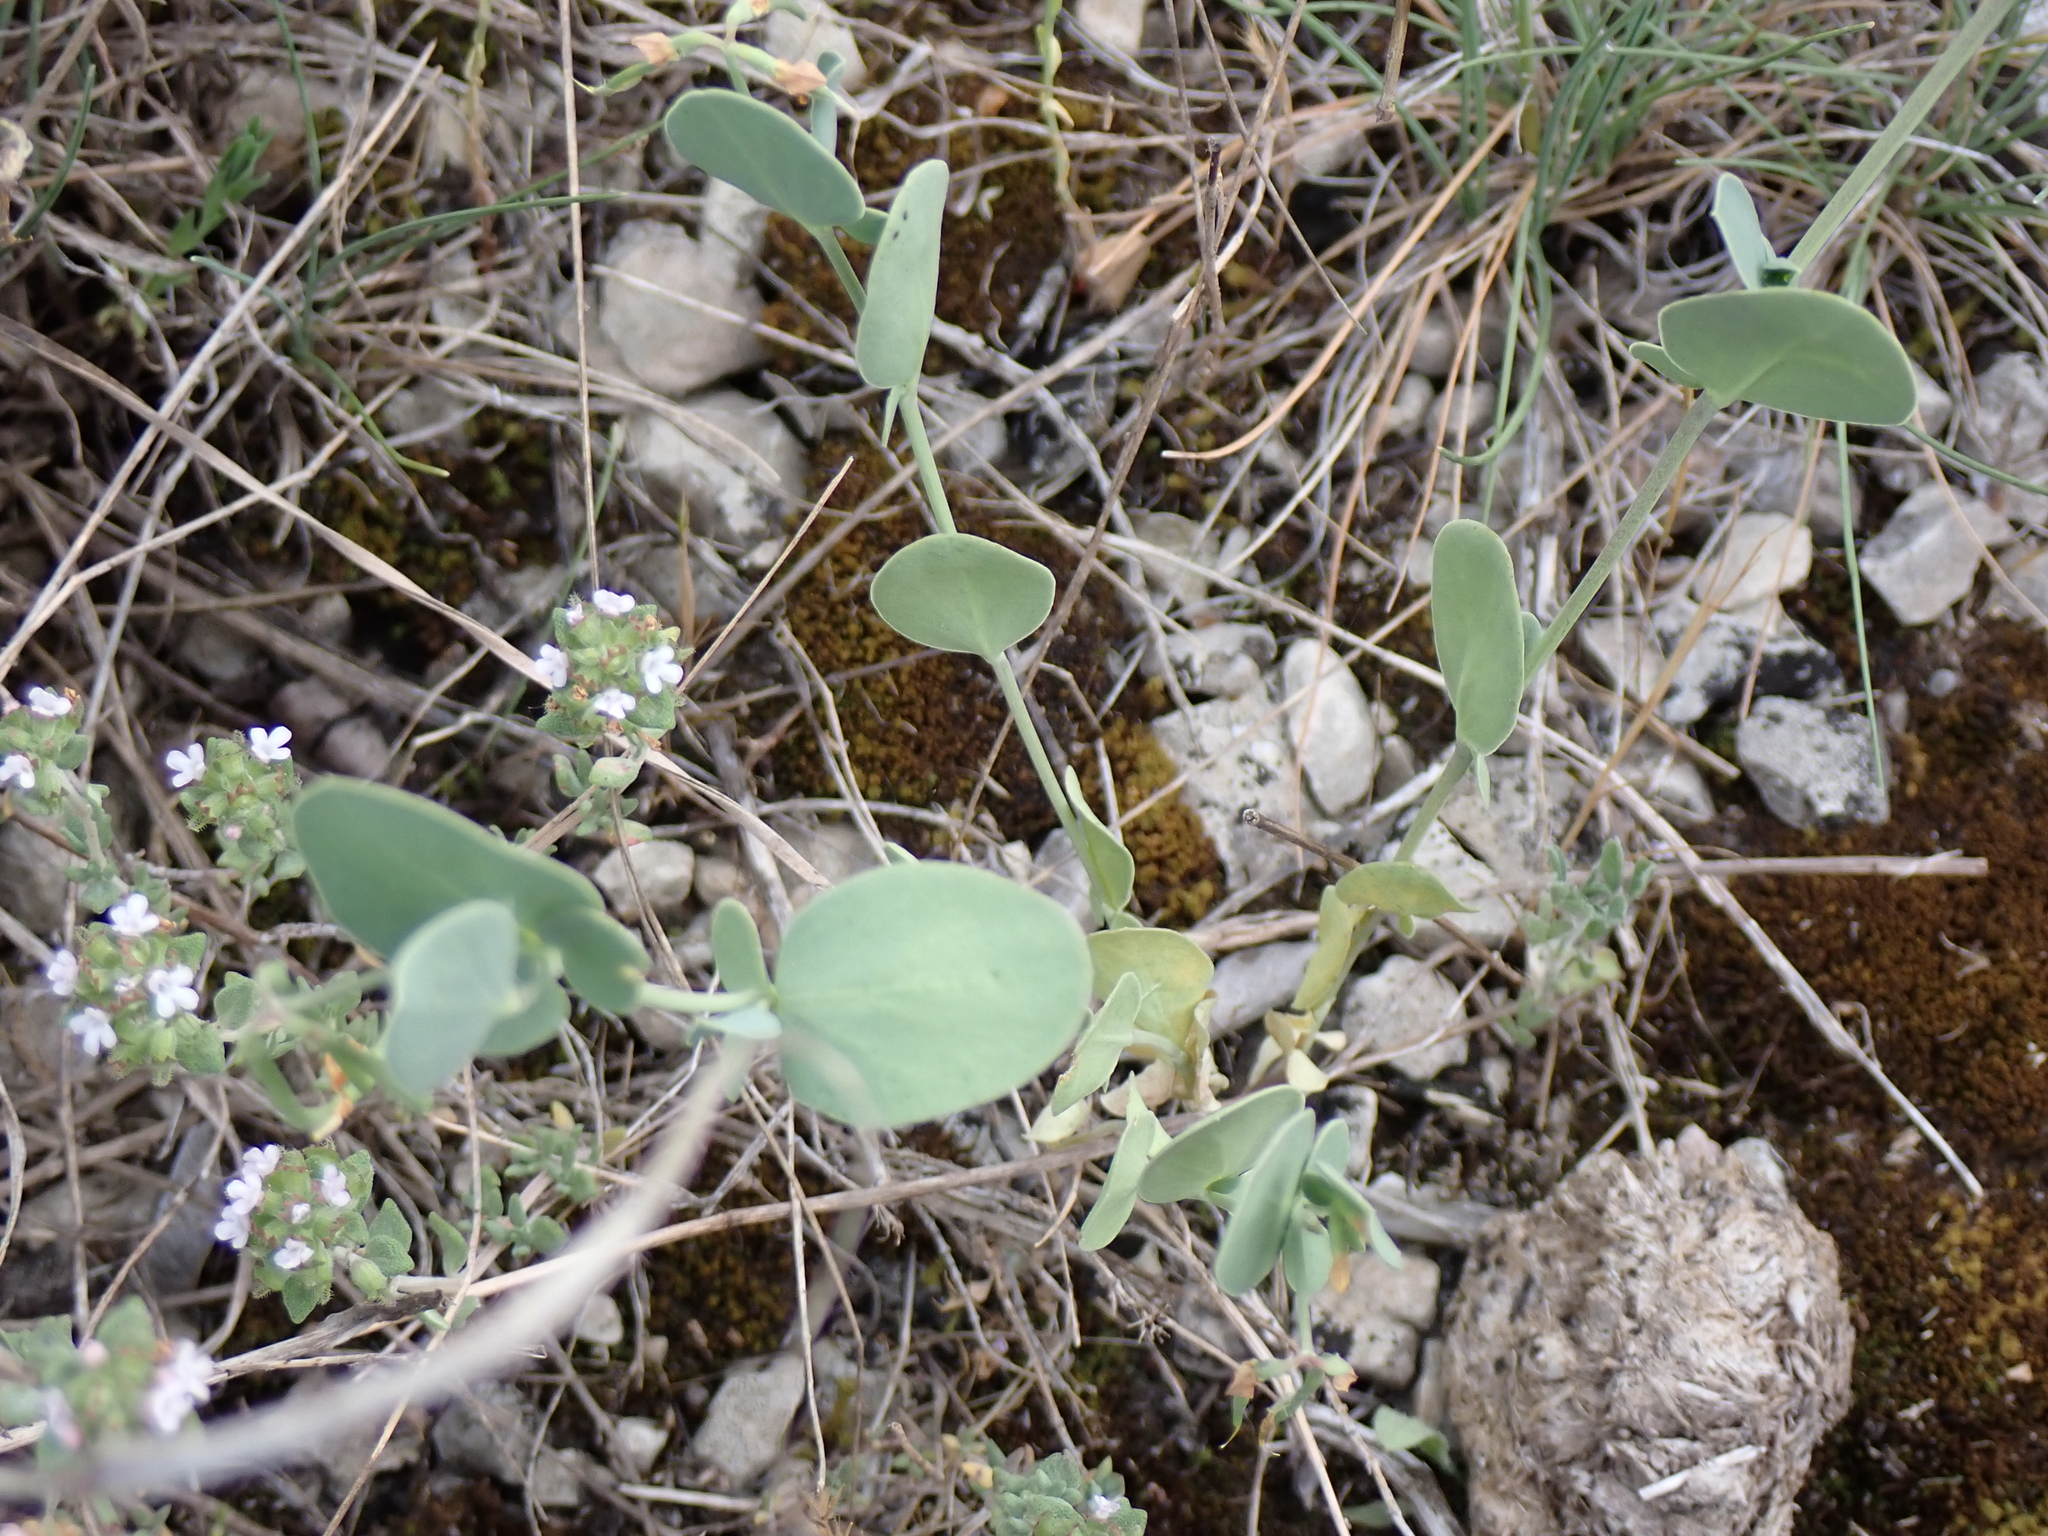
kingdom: Plantae
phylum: Tracheophyta
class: Magnoliopsida
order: Fabales
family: Fabaceae
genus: Coronilla
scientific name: Coronilla scorpioides
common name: Annual scorpion-vetch
